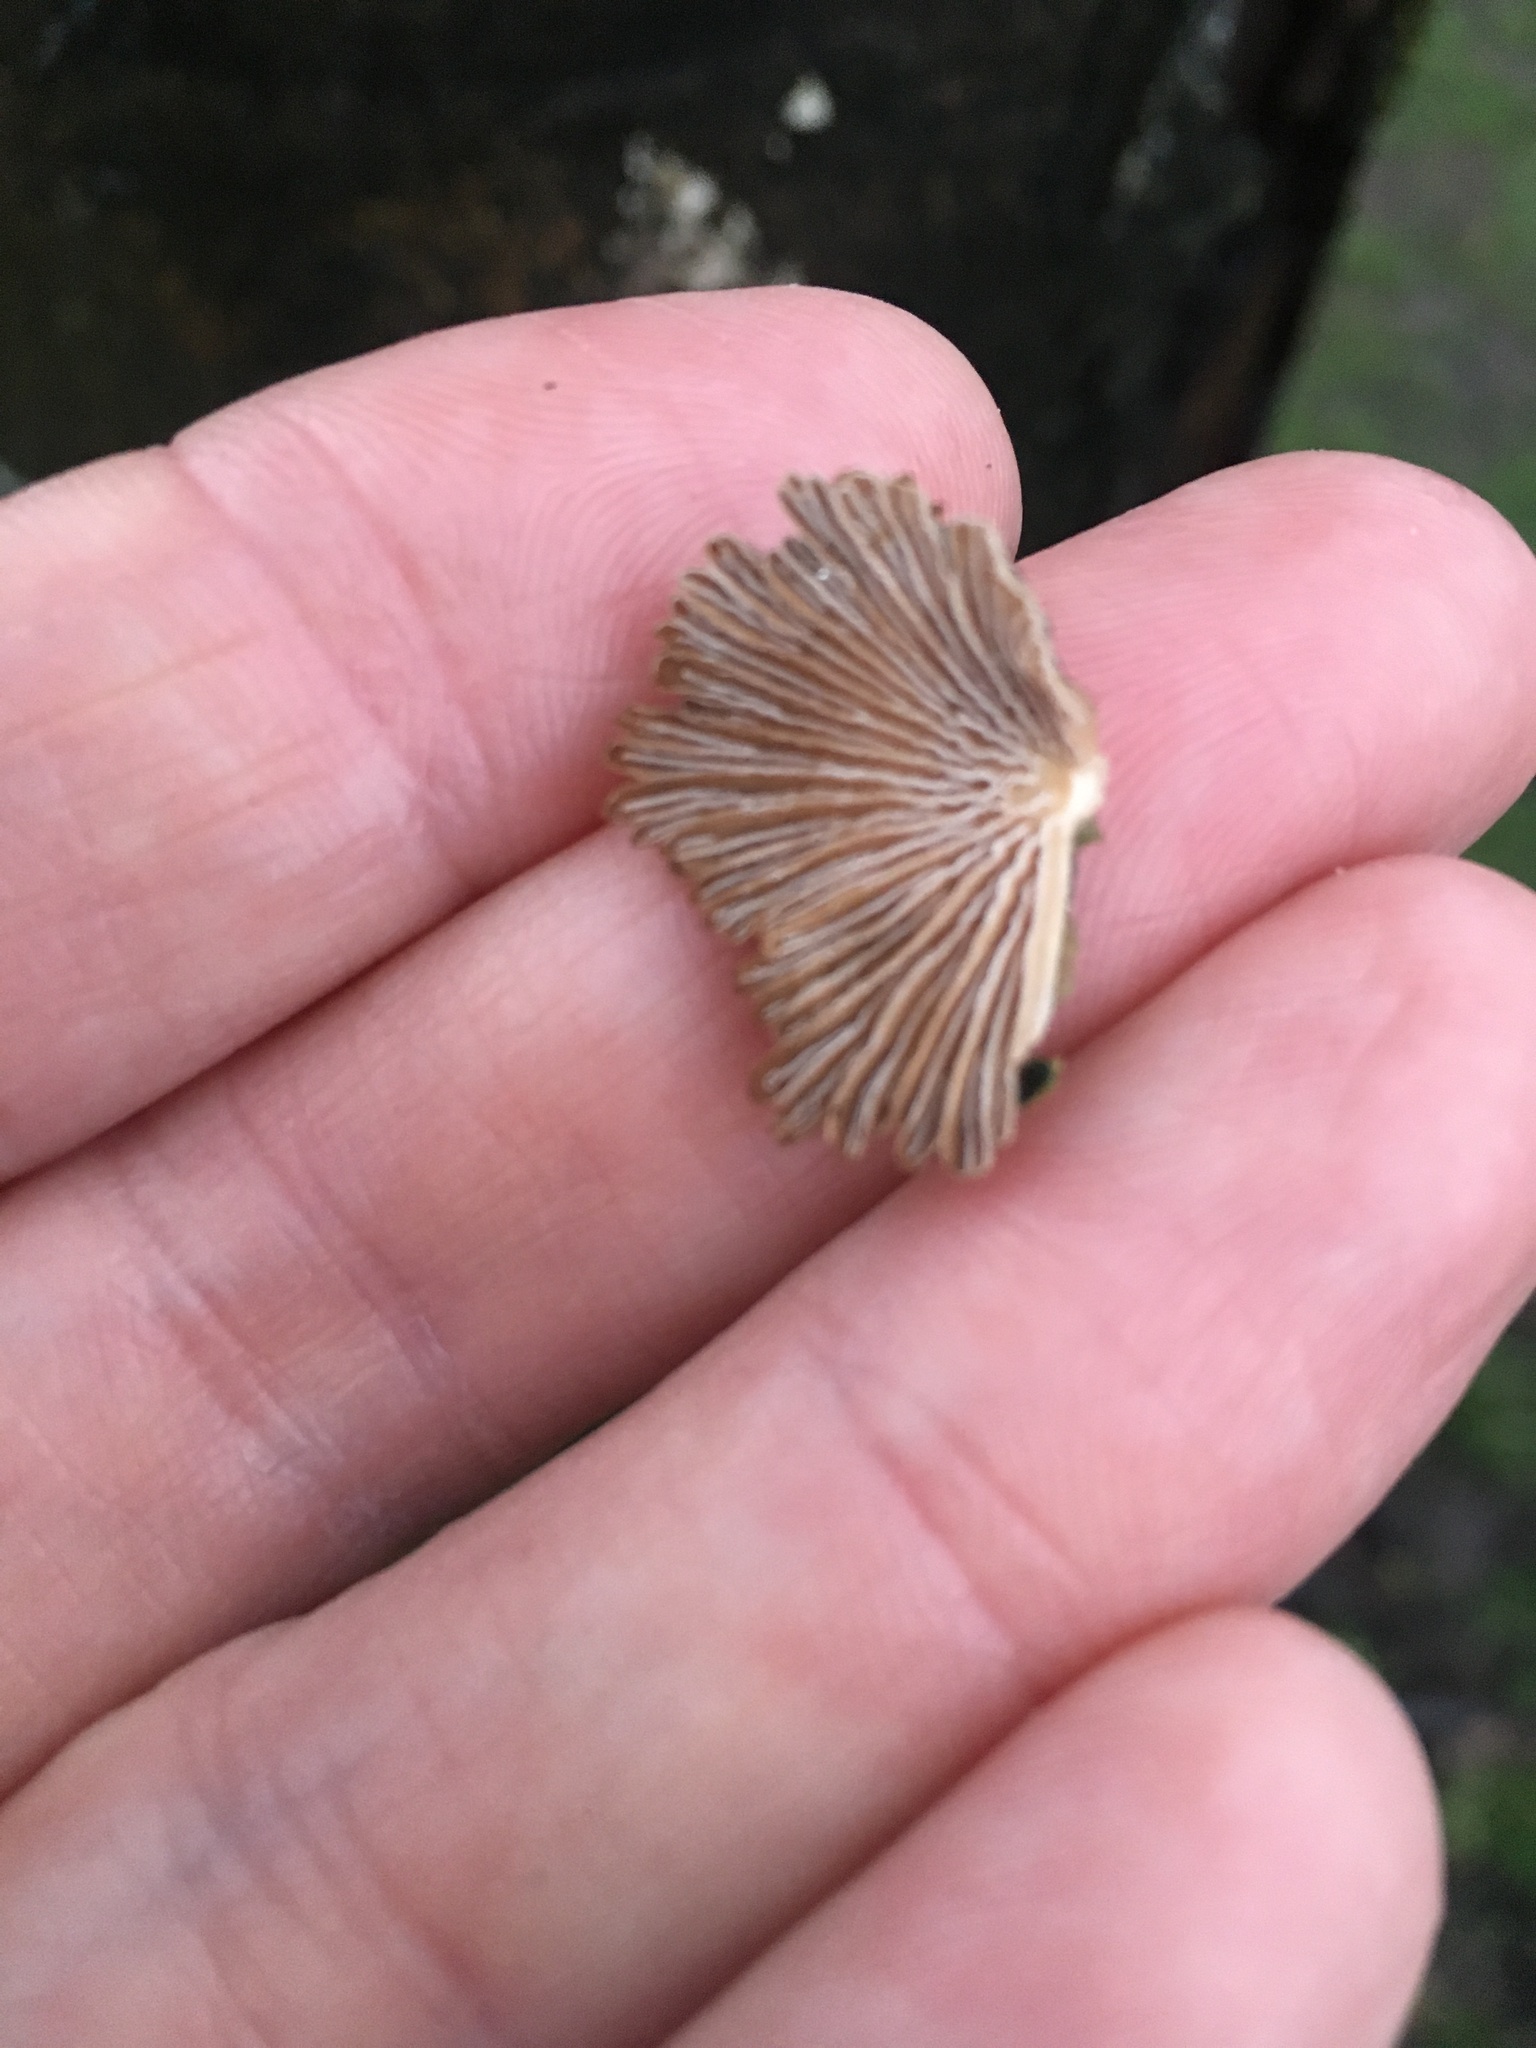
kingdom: Fungi
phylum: Basidiomycota
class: Agaricomycetes
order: Agaricales
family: Schizophyllaceae
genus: Schizophyllum
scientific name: Schizophyllum commune
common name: Common porecrust
